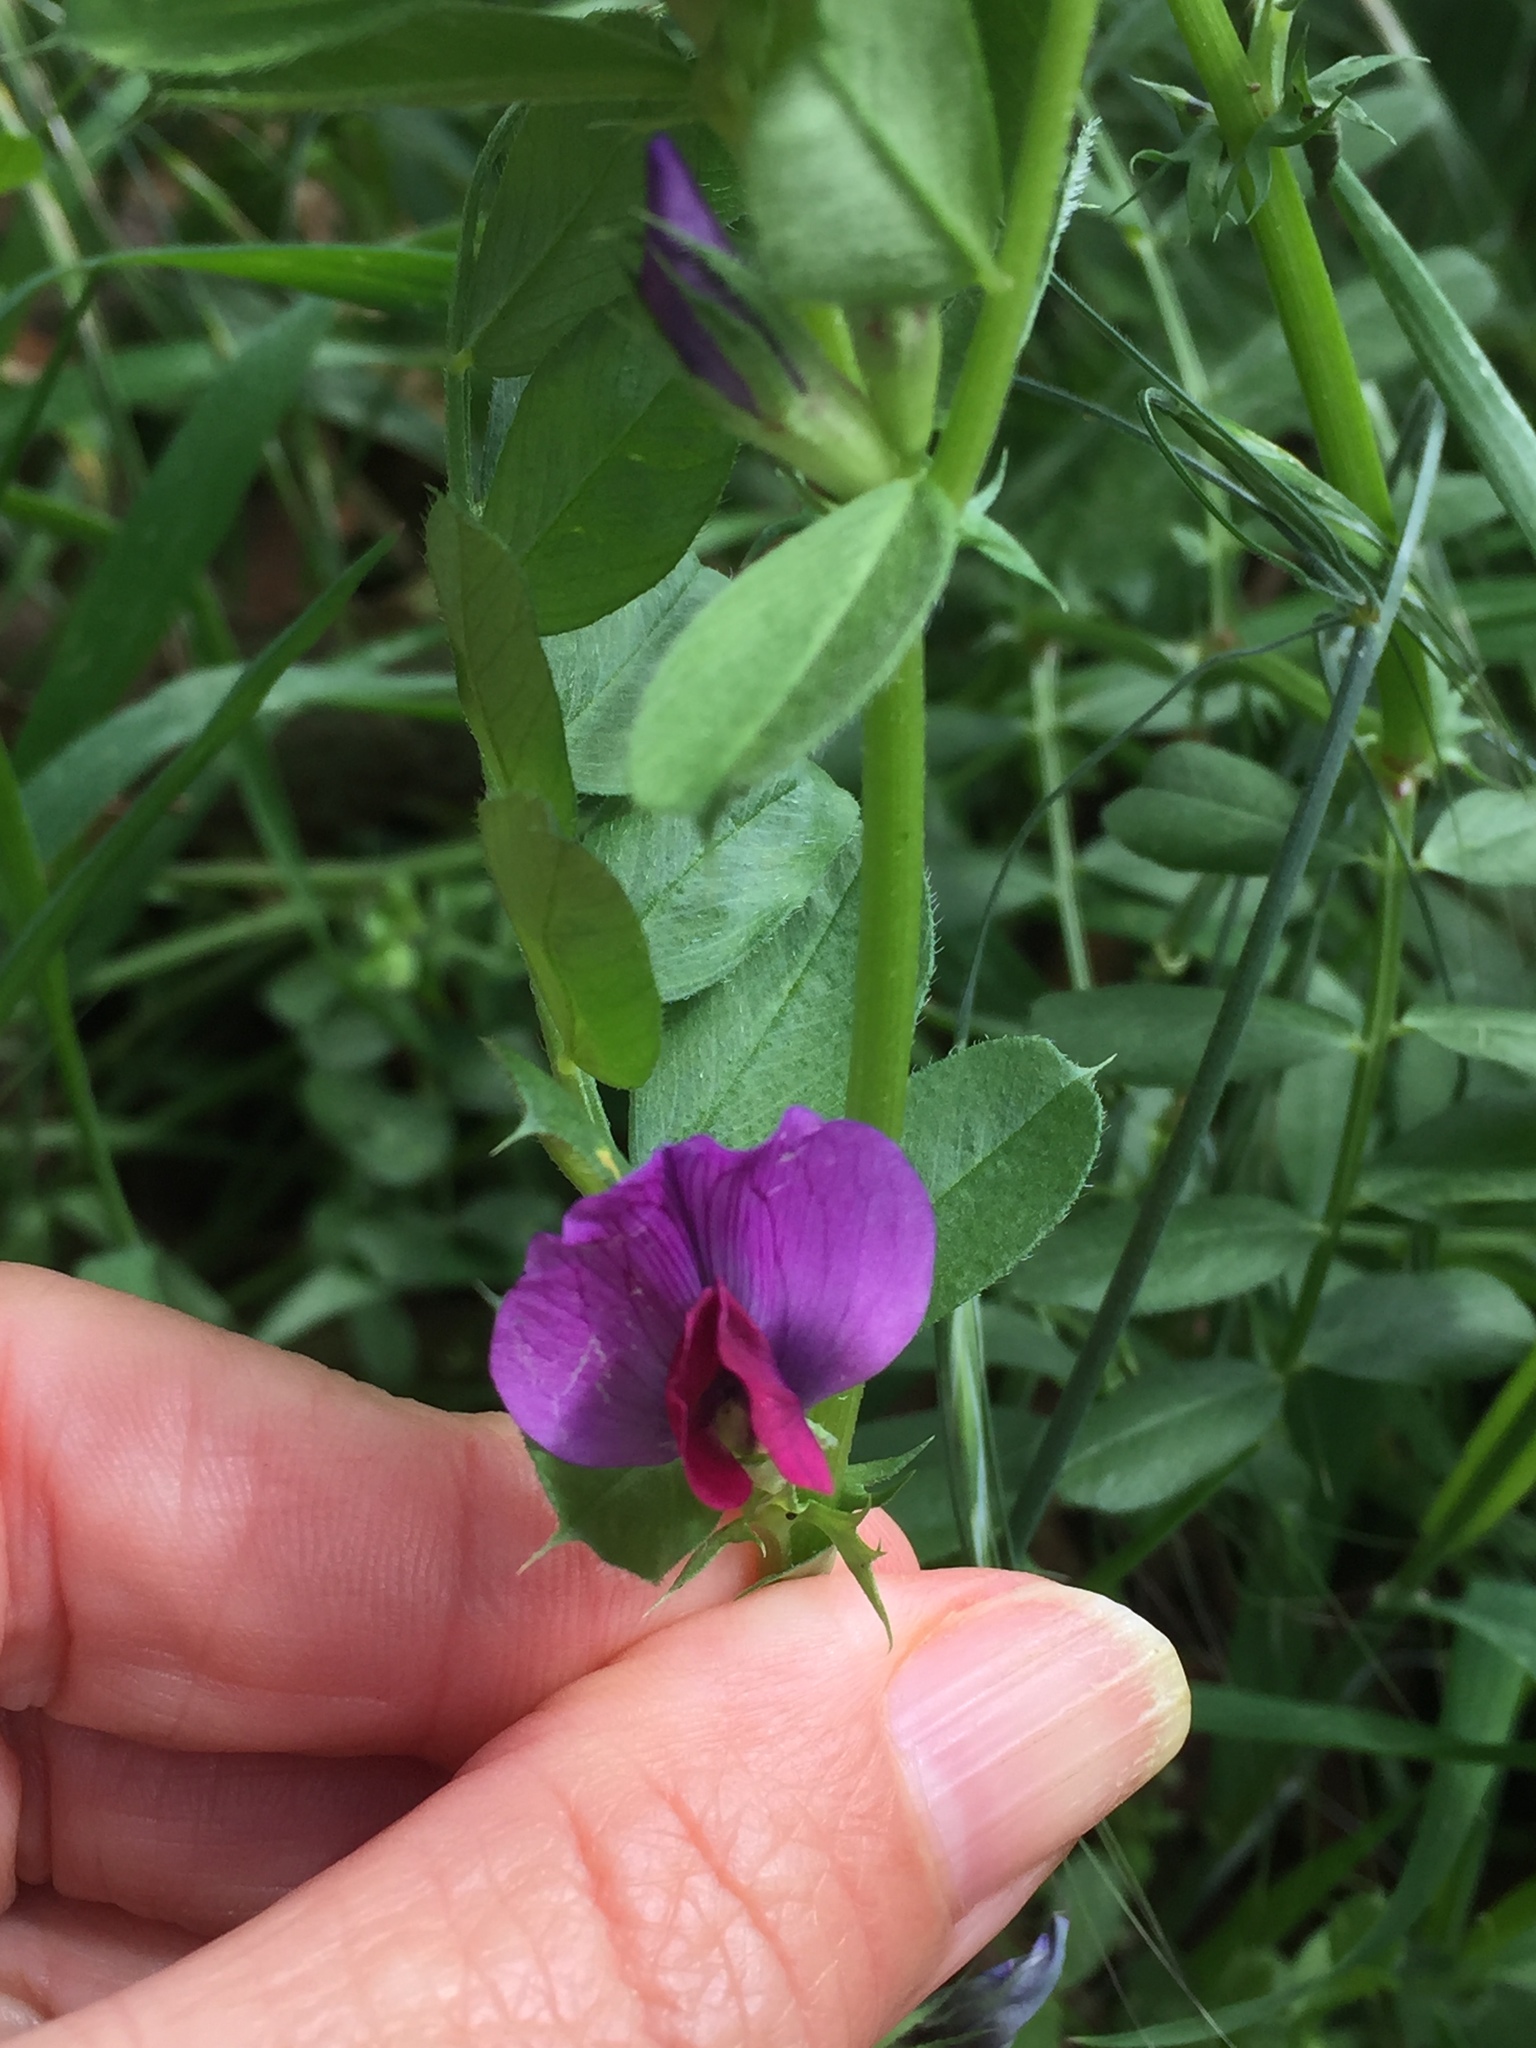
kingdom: Plantae
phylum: Tracheophyta
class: Magnoliopsida
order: Fabales
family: Fabaceae
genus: Vicia
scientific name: Vicia sativa
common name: Garden vetch
